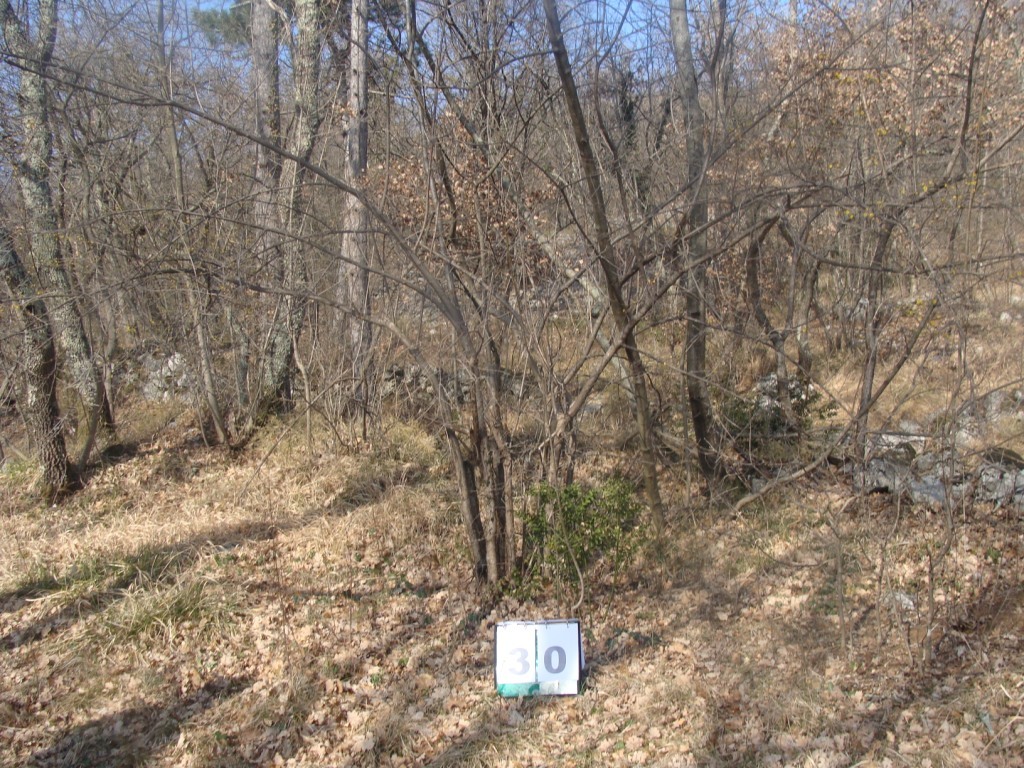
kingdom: Plantae
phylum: Tracheophyta
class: Magnoliopsida
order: Cornales
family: Cornaceae
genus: Cornus
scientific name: Cornus mas
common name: Cornelian-cherry
